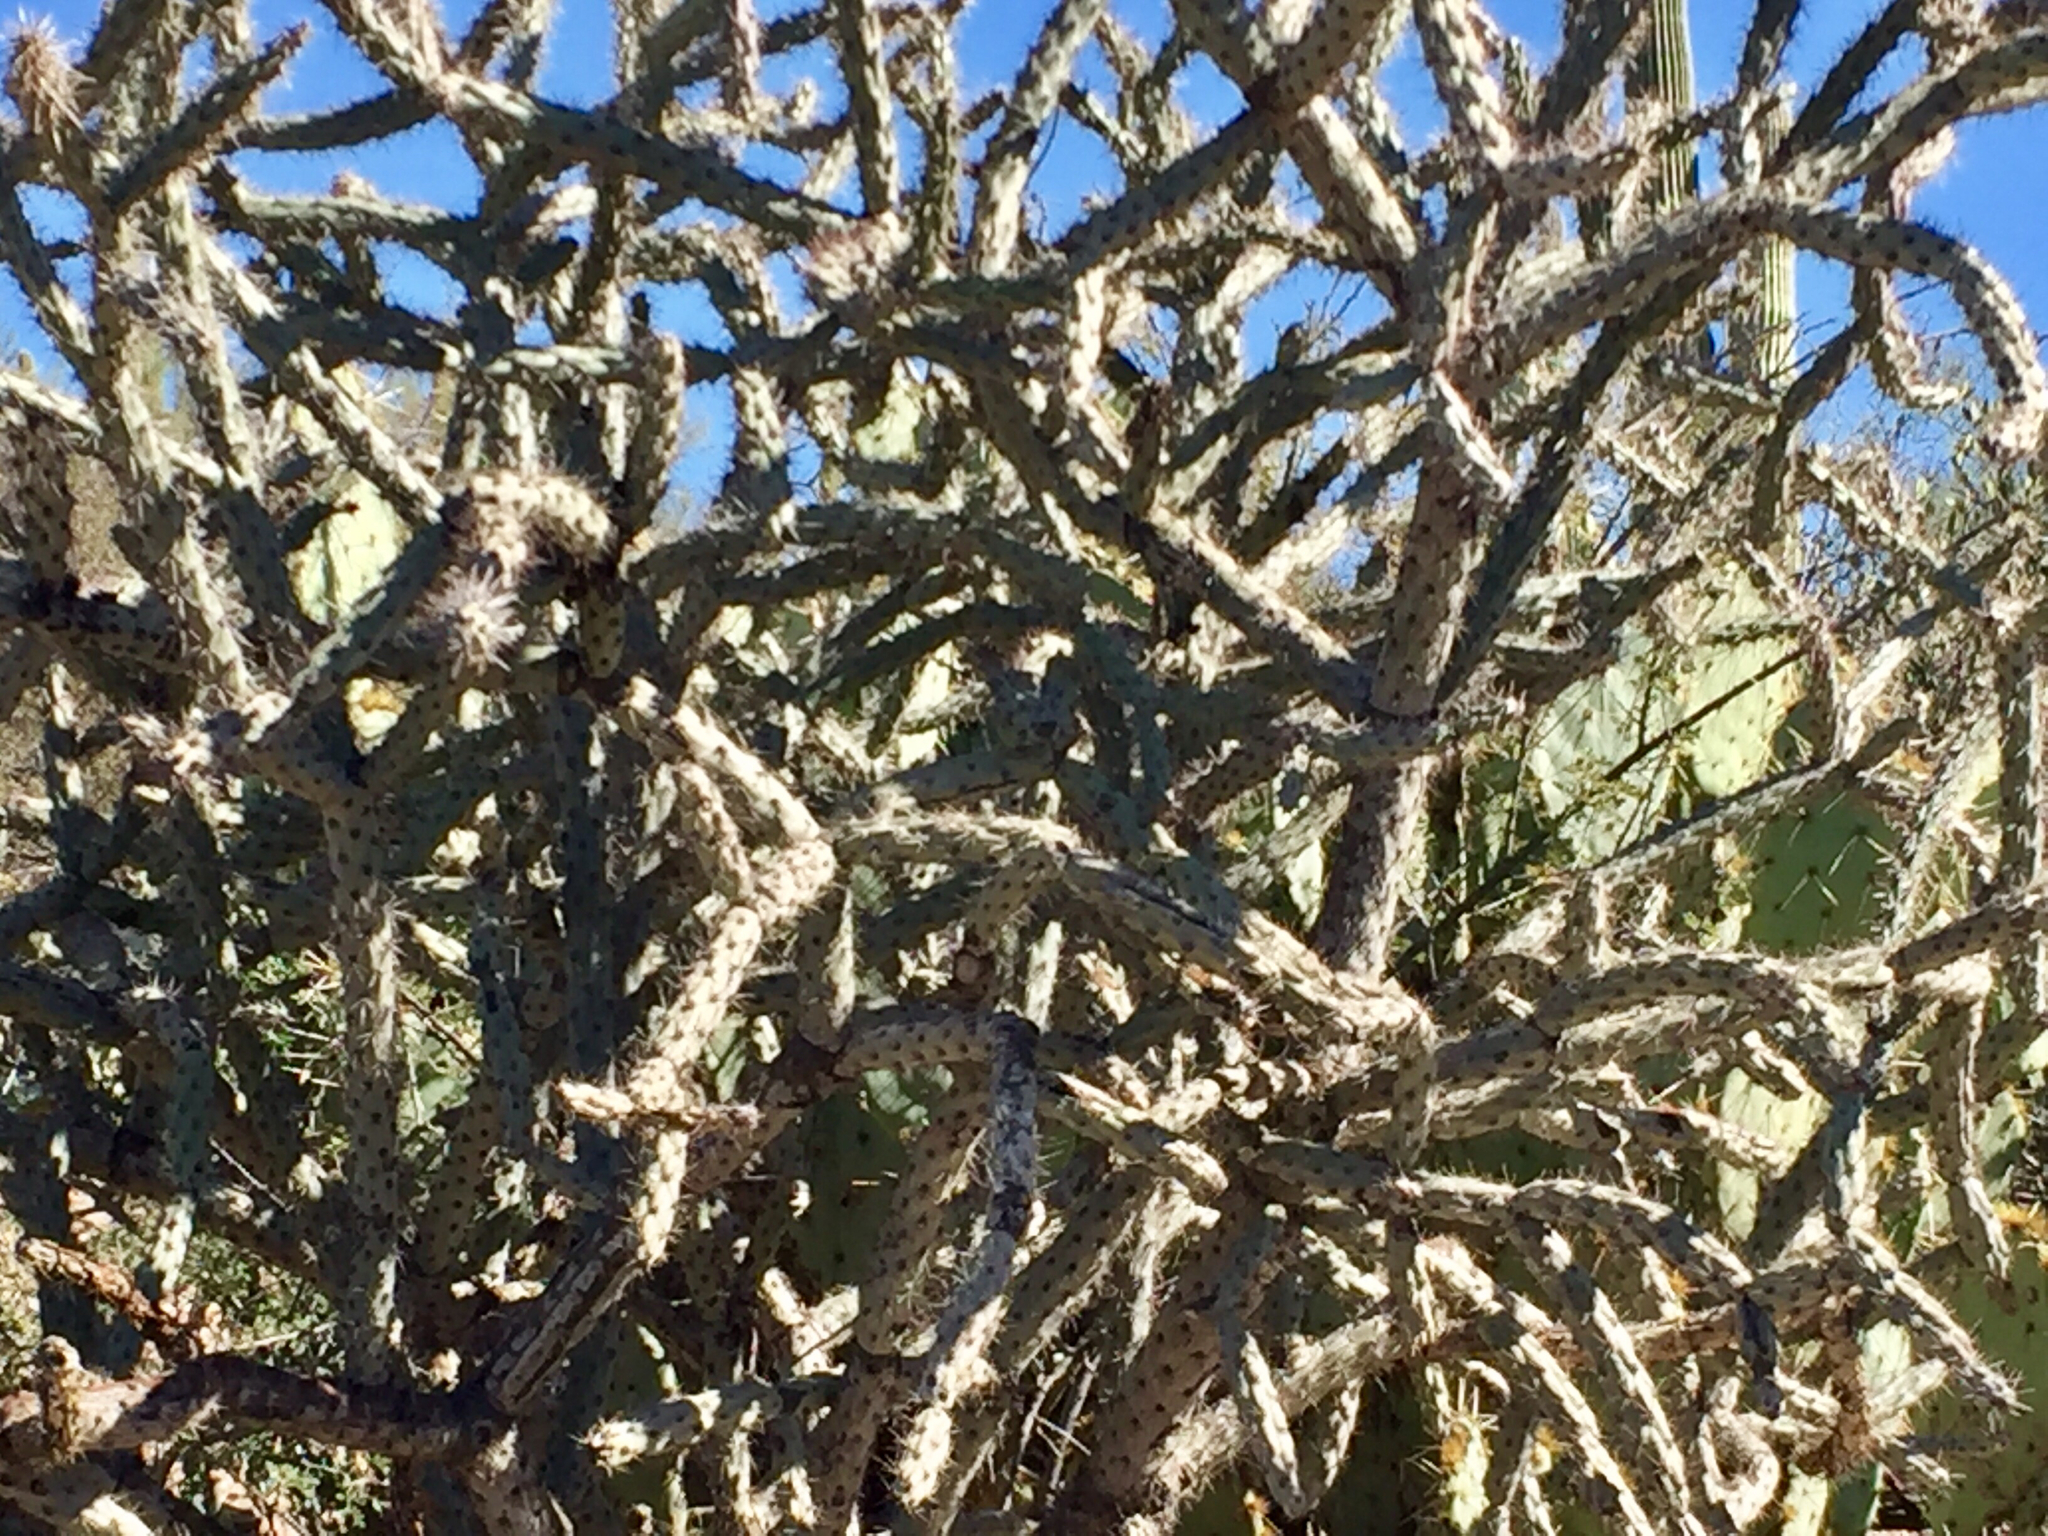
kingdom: Plantae
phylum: Tracheophyta
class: Magnoliopsida
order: Caryophyllales
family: Cactaceae
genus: Cylindropuntia
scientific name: Cylindropuntia thurberi
